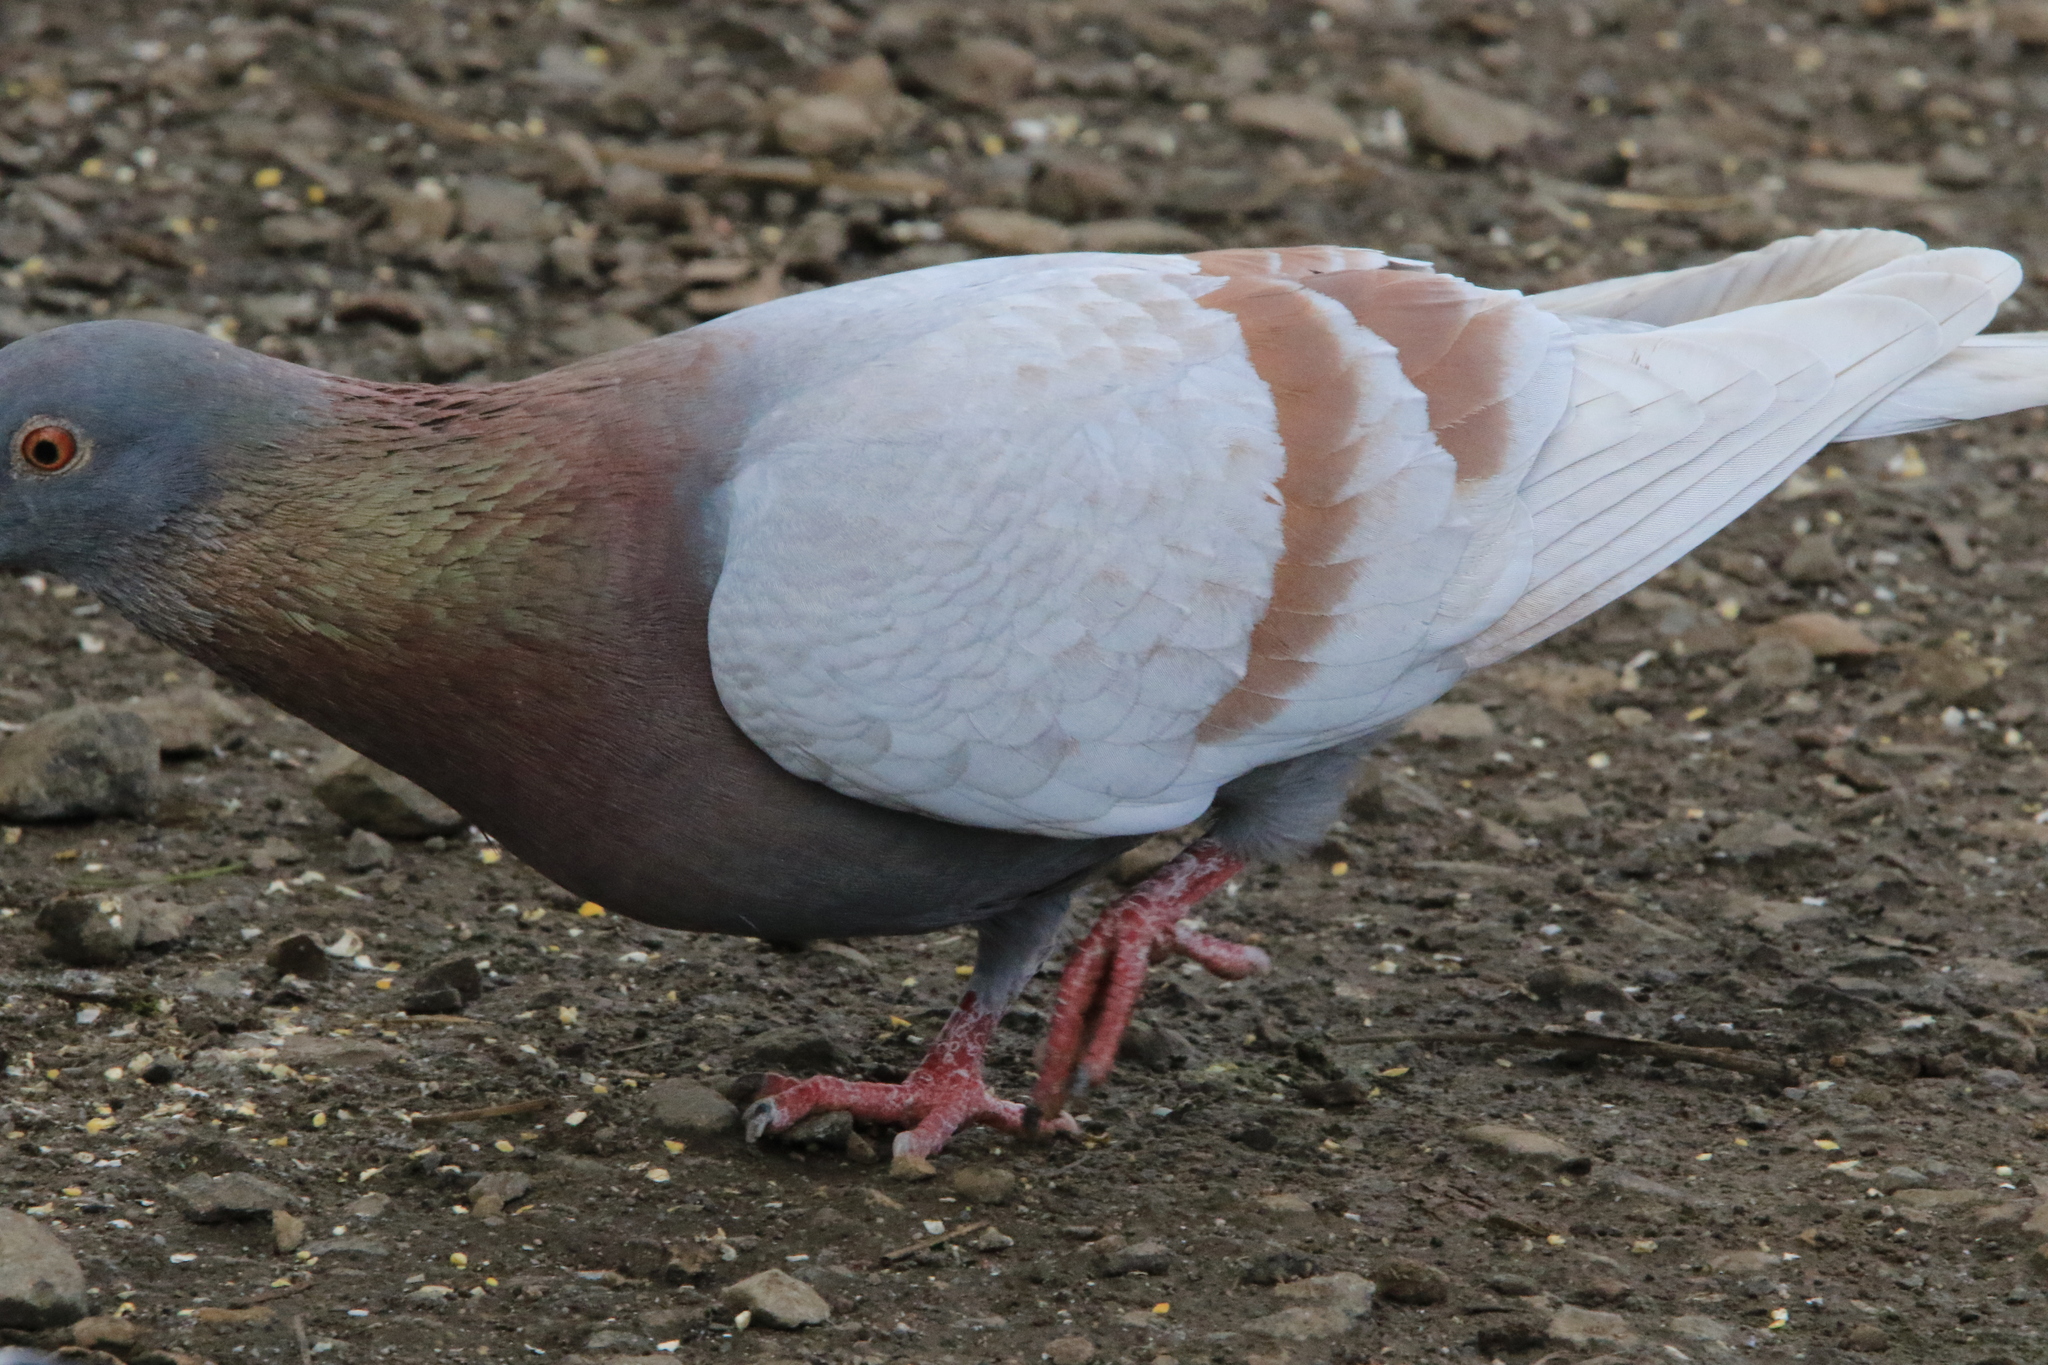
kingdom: Animalia
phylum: Chordata
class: Aves
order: Columbiformes
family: Columbidae
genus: Columba
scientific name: Columba livia
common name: Rock pigeon
